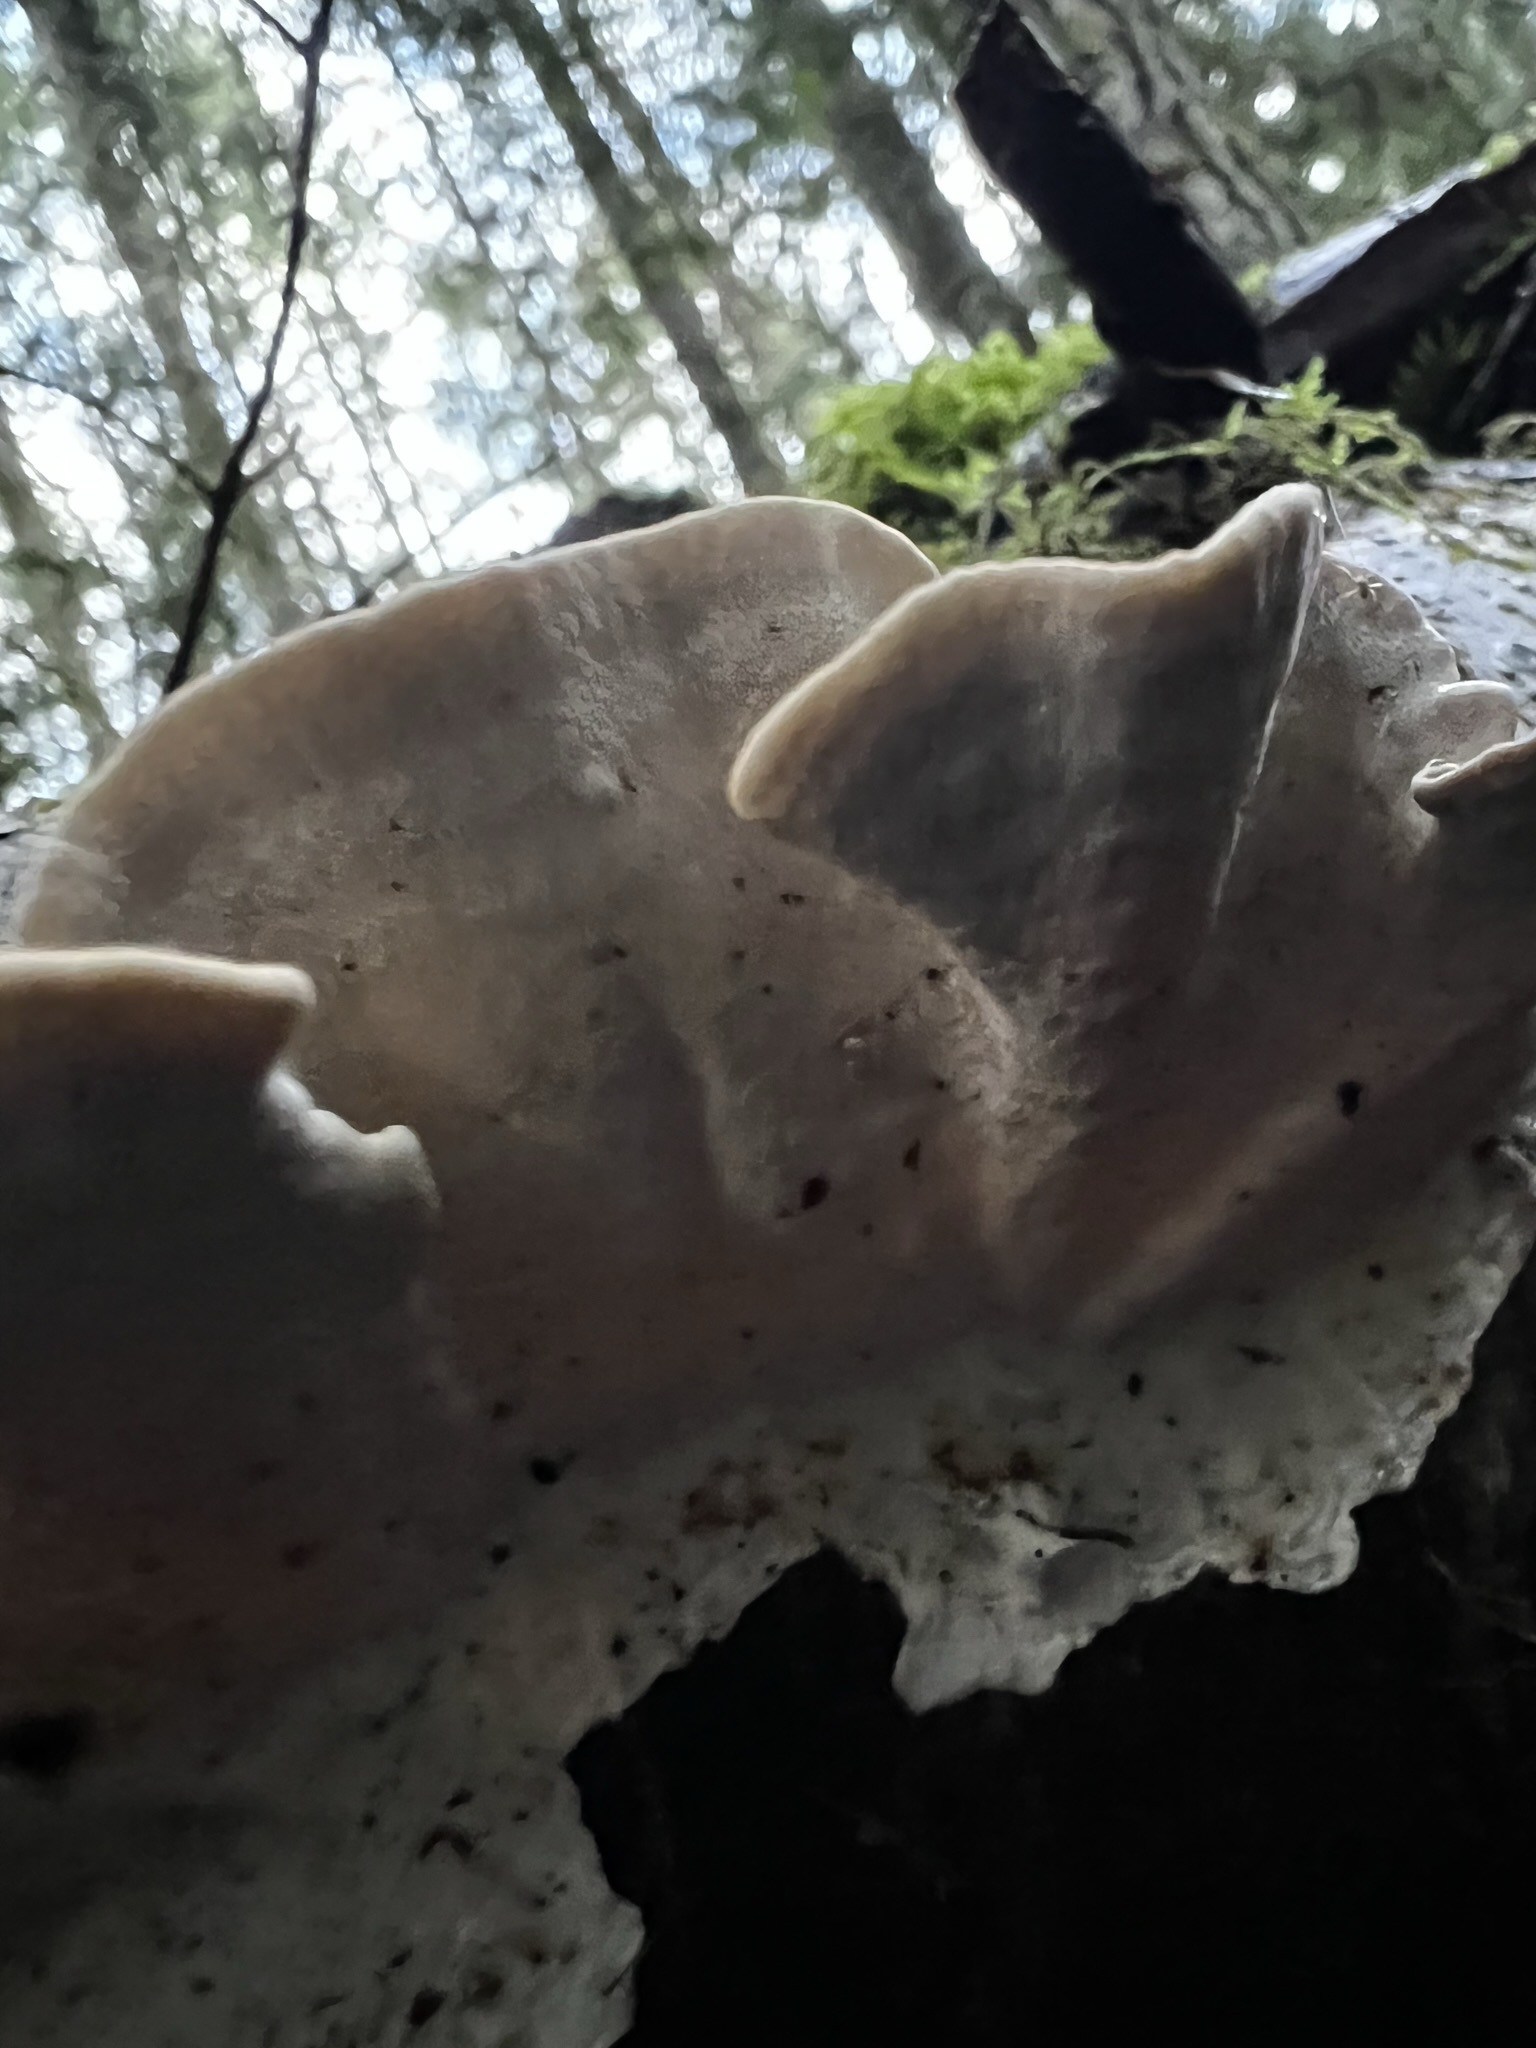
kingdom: Fungi
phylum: Basidiomycota
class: Agaricomycetes
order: Polyporales
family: Polyporaceae
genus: Trametes
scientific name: Trametes versicolor
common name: Turkeytail
